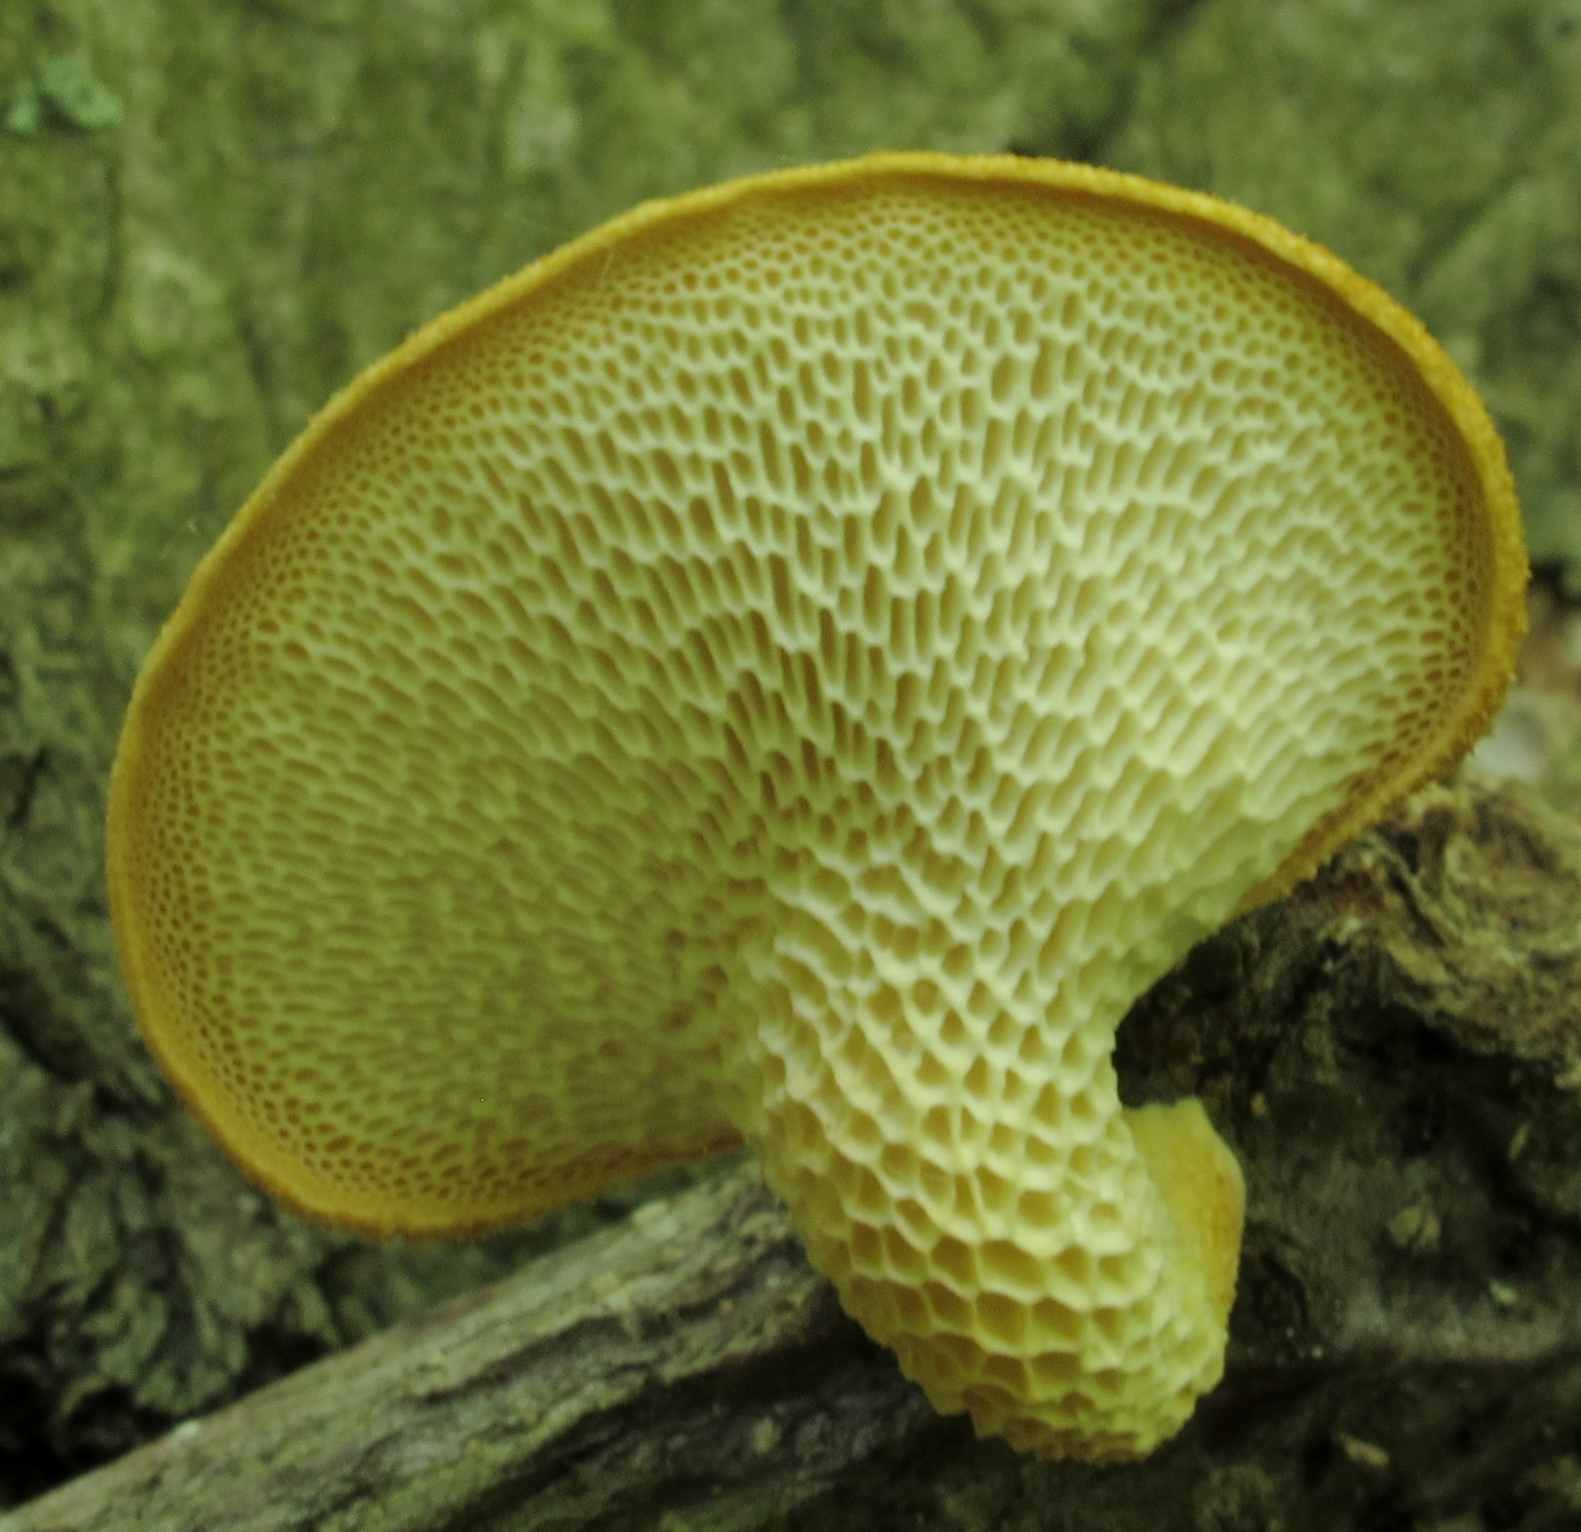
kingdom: Fungi
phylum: Basidiomycota
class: Agaricomycetes
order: Polyporales
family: Polyporaceae
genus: Neofavolus
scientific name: Neofavolus alveolaris
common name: Hexagonal-pored polypore
